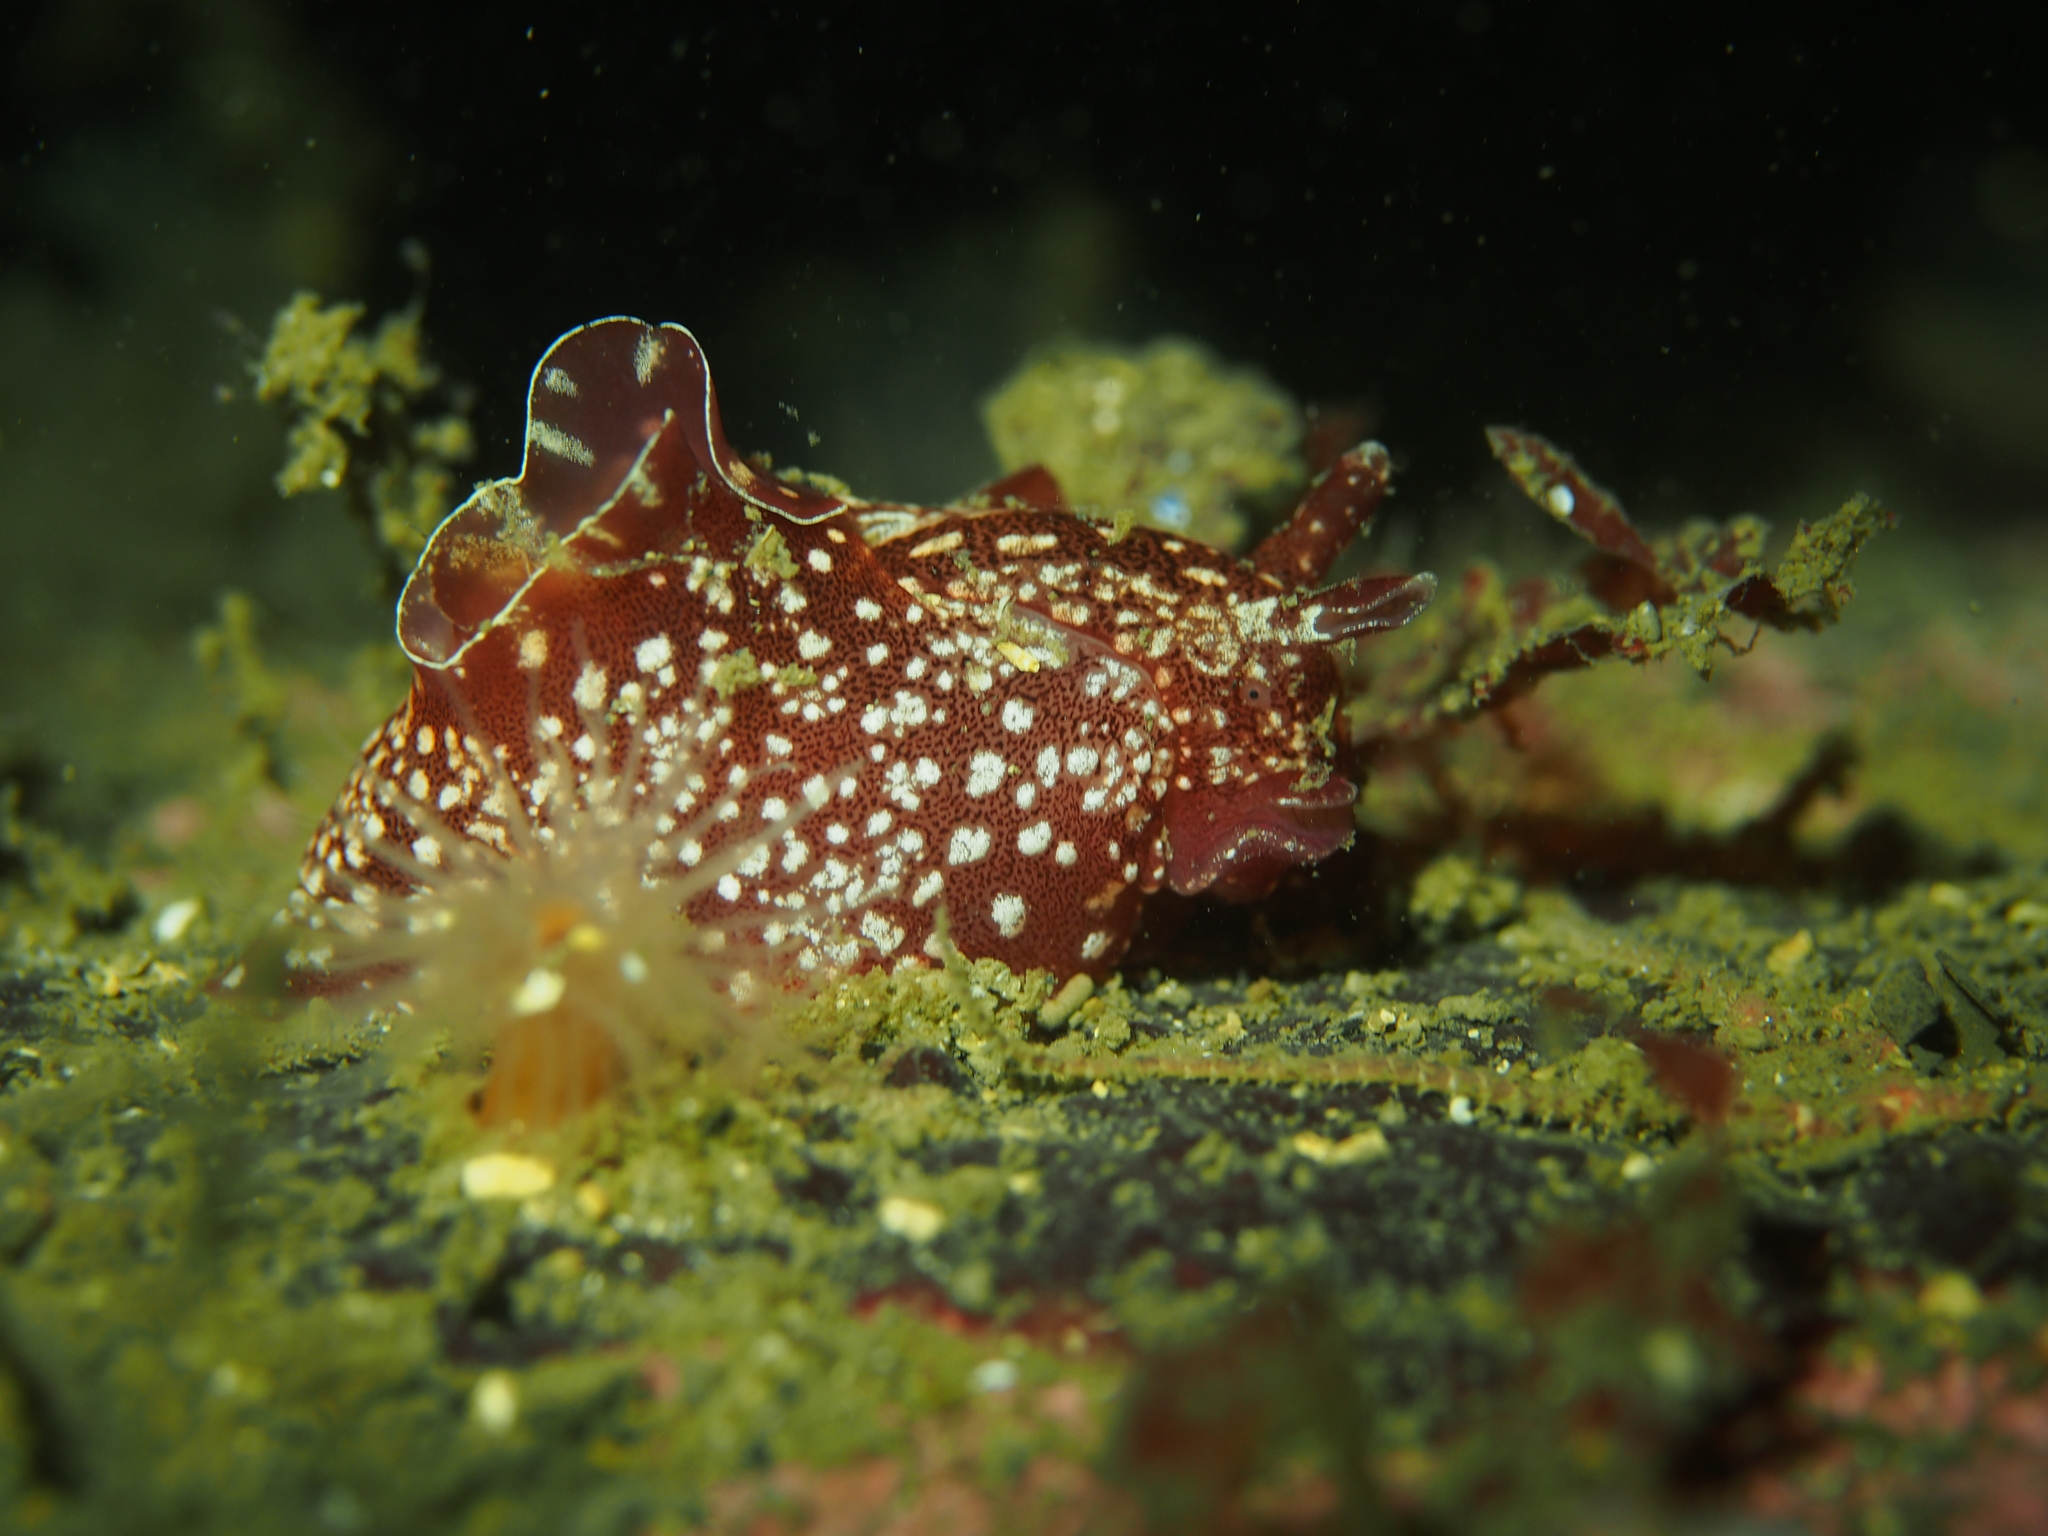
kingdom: Animalia
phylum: Mollusca
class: Gastropoda
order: Aplysiida
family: Aplysiidae
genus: Aplysia
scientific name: Aplysia punctata
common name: Common sea hare
